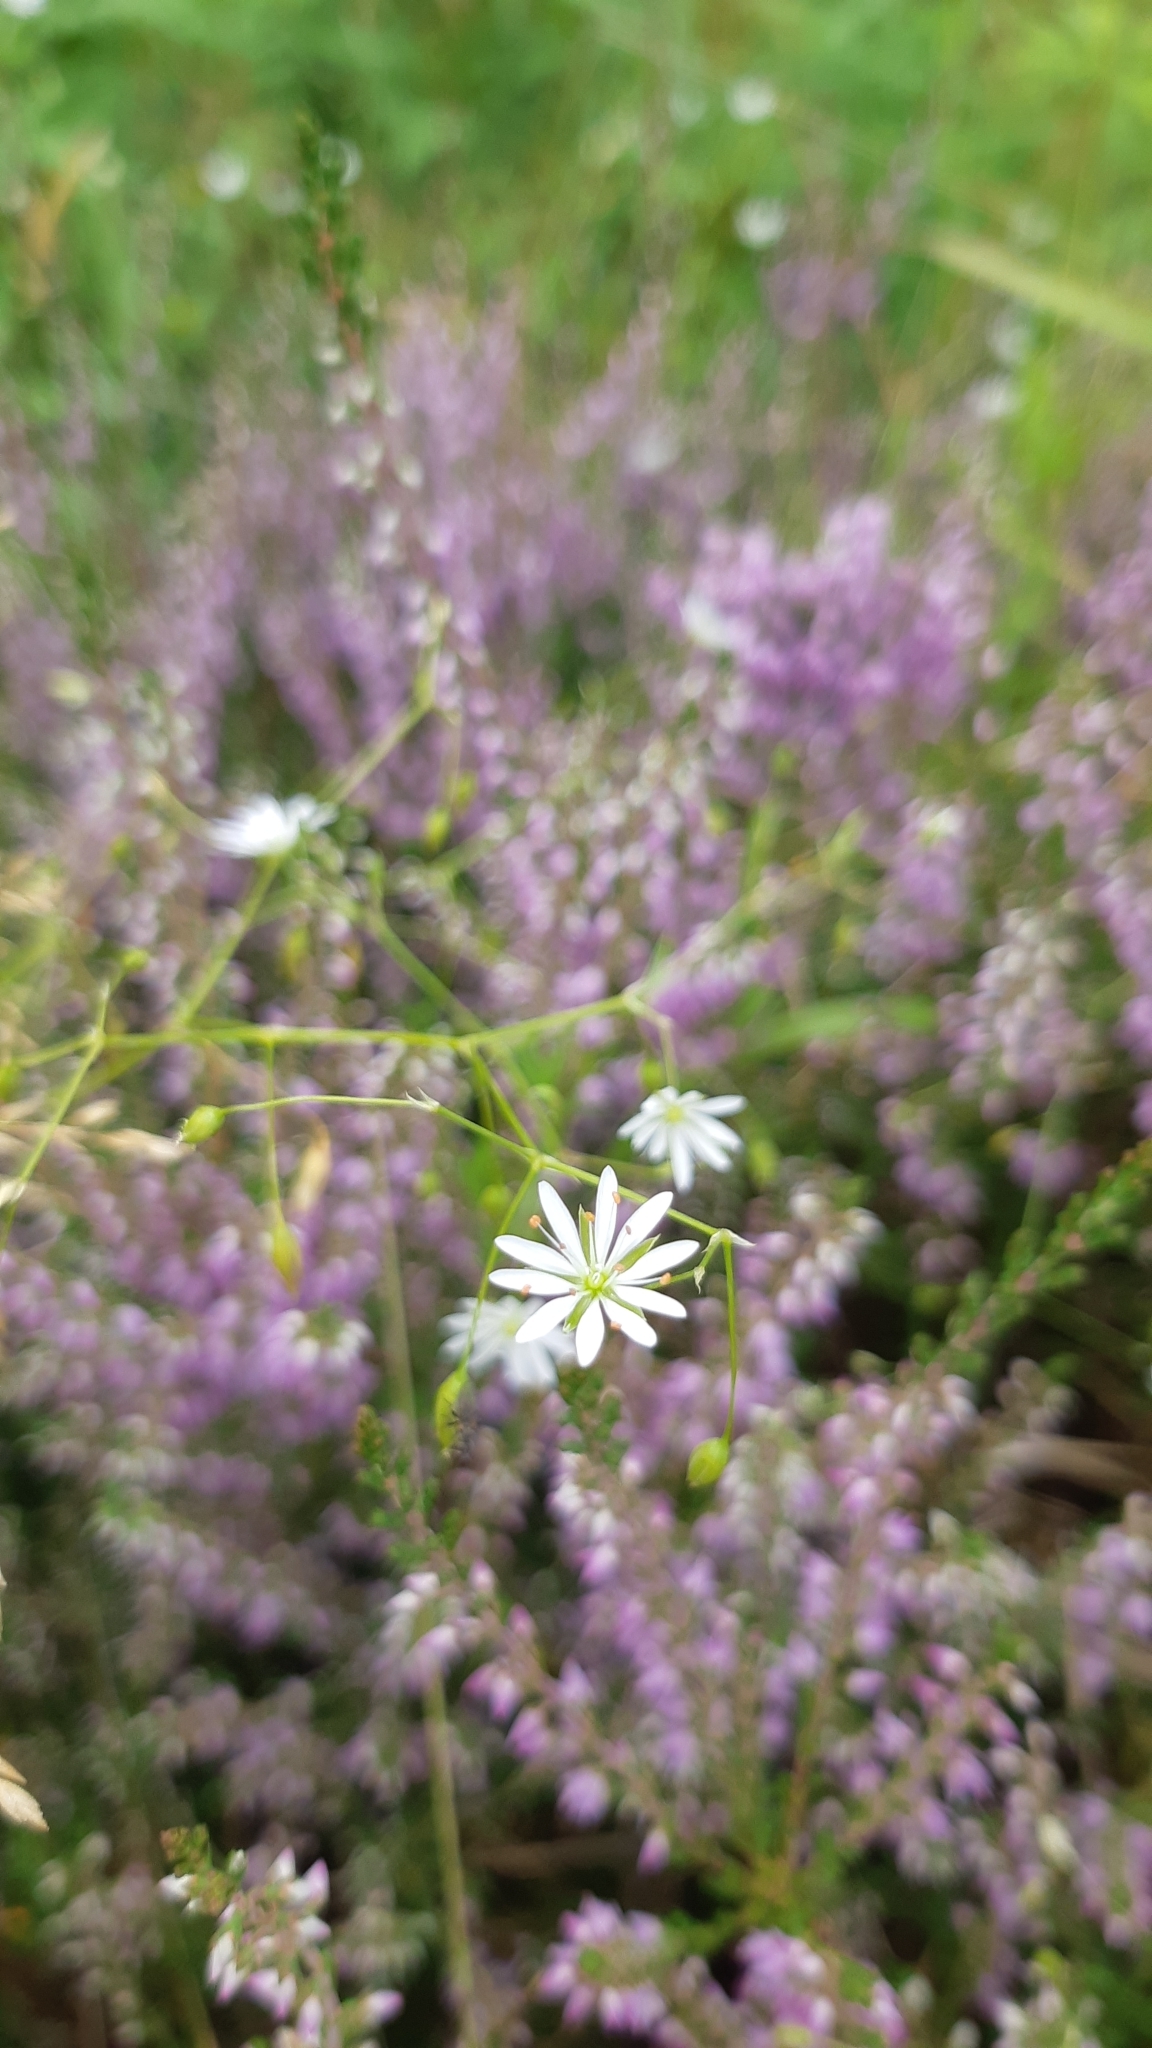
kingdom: Plantae
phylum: Tracheophyta
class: Magnoliopsida
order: Caryophyllales
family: Caryophyllaceae
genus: Stellaria
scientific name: Stellaria graminea
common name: Grass-like starwort
